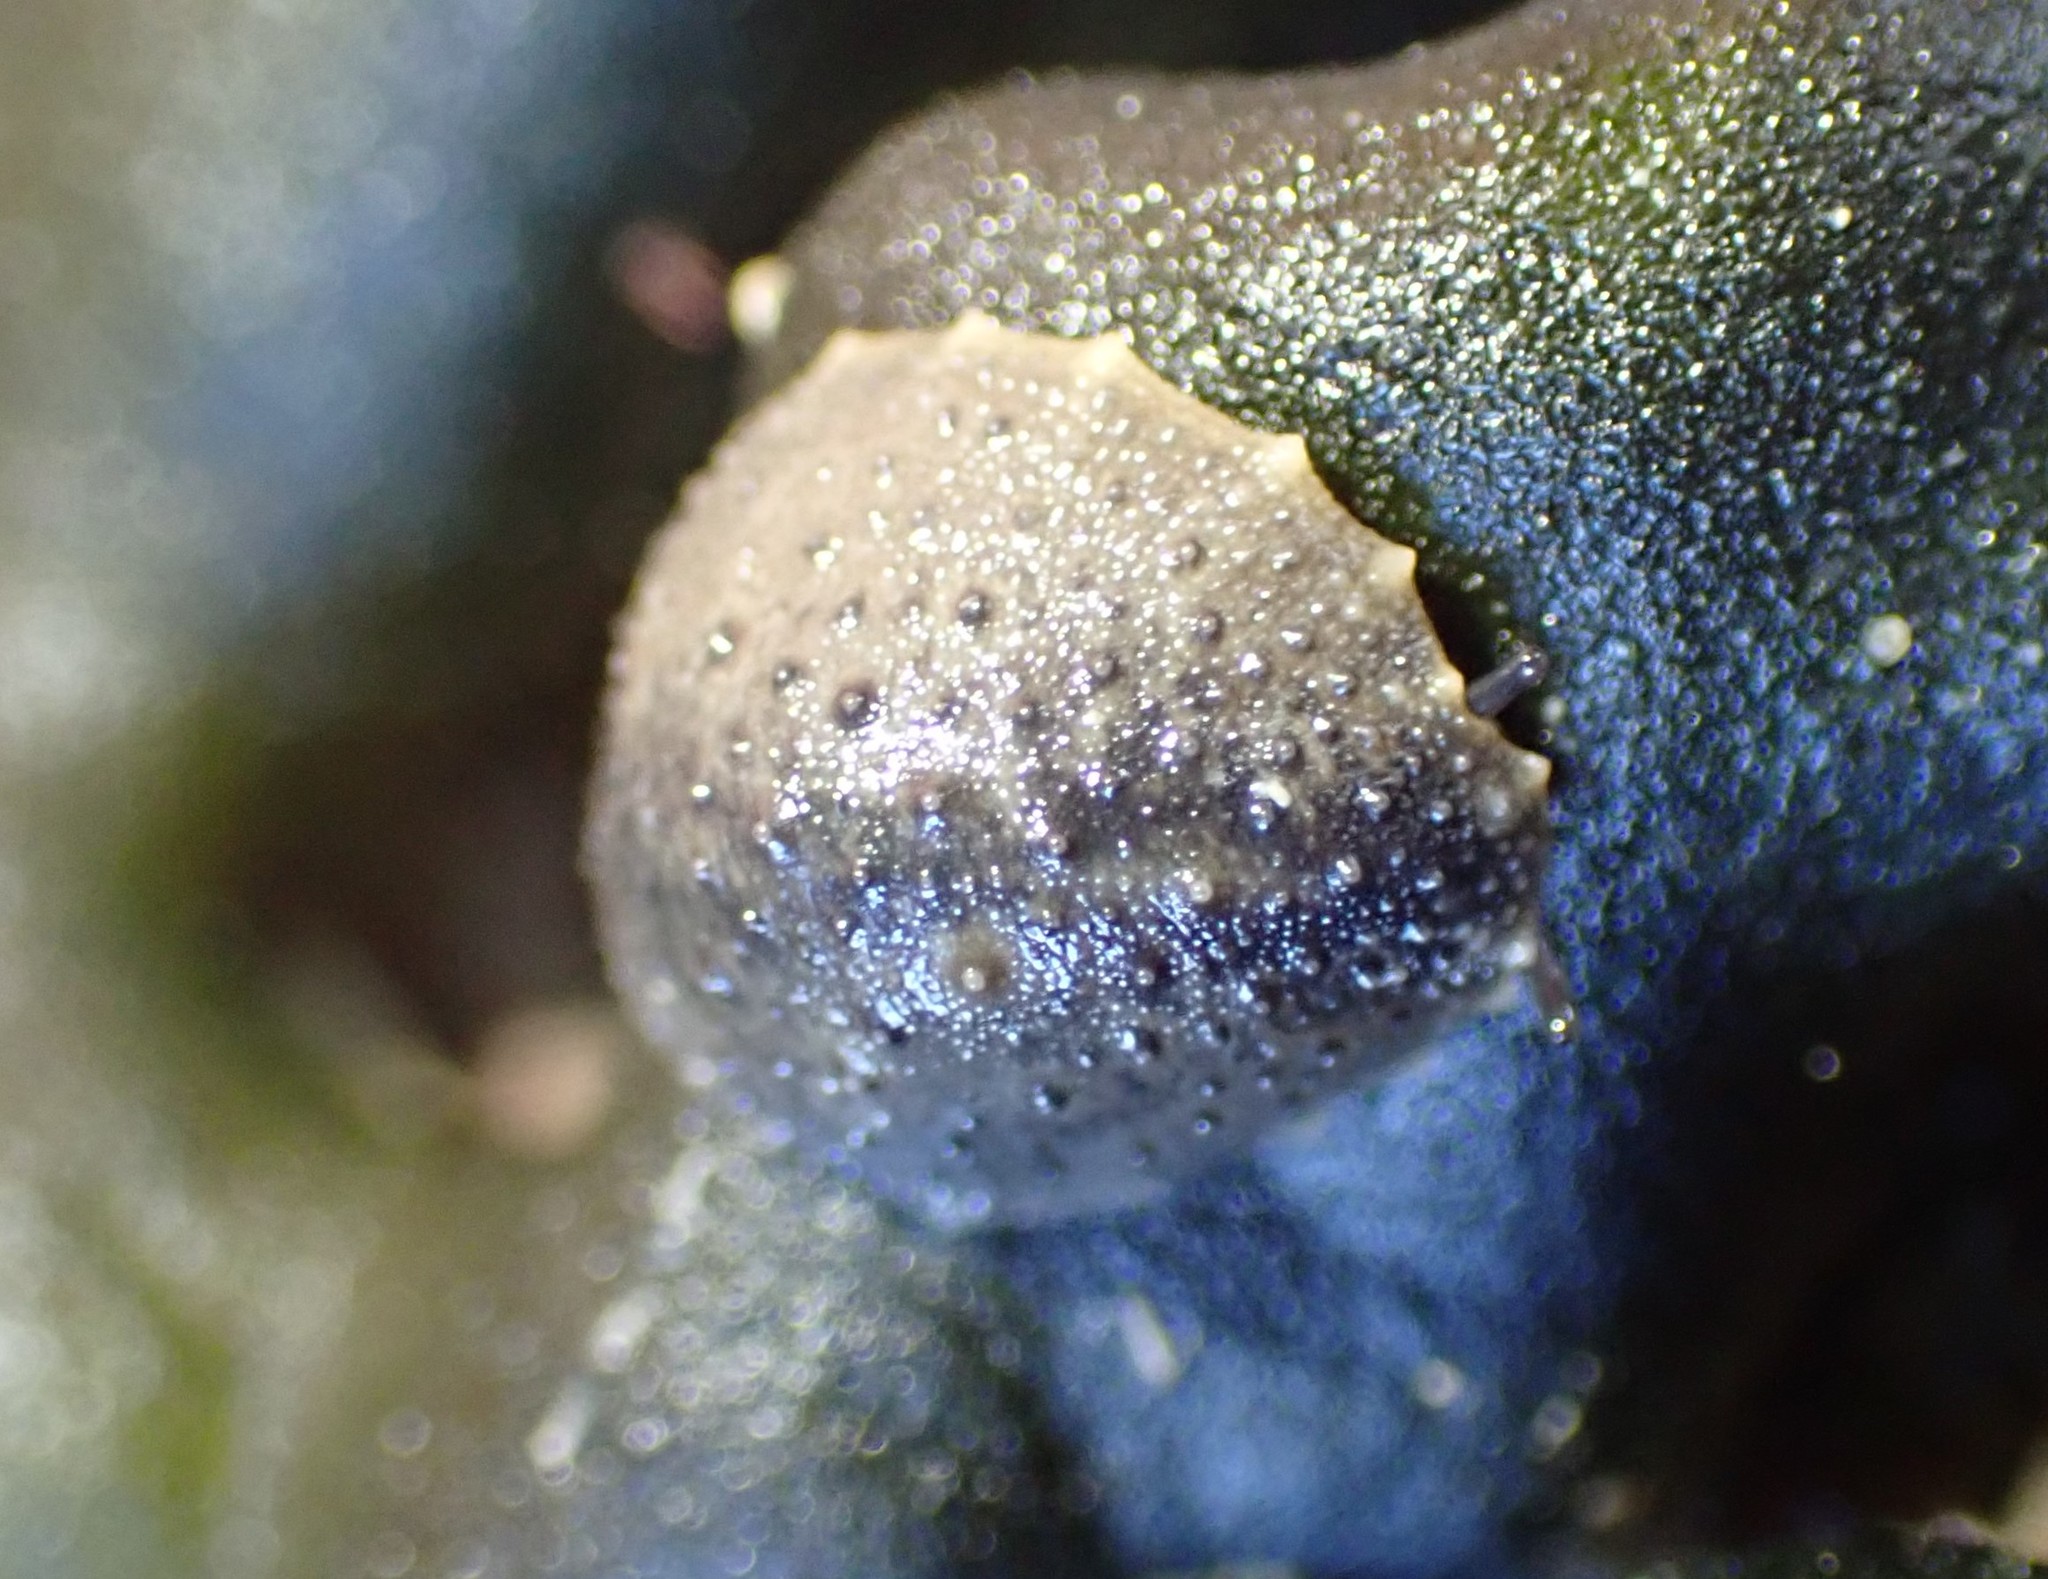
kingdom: Animalia
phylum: Mollusca
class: Gastropoda
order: Systellommatophora
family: Onchidiidae
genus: Onchidella
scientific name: Onchidella nigricans
